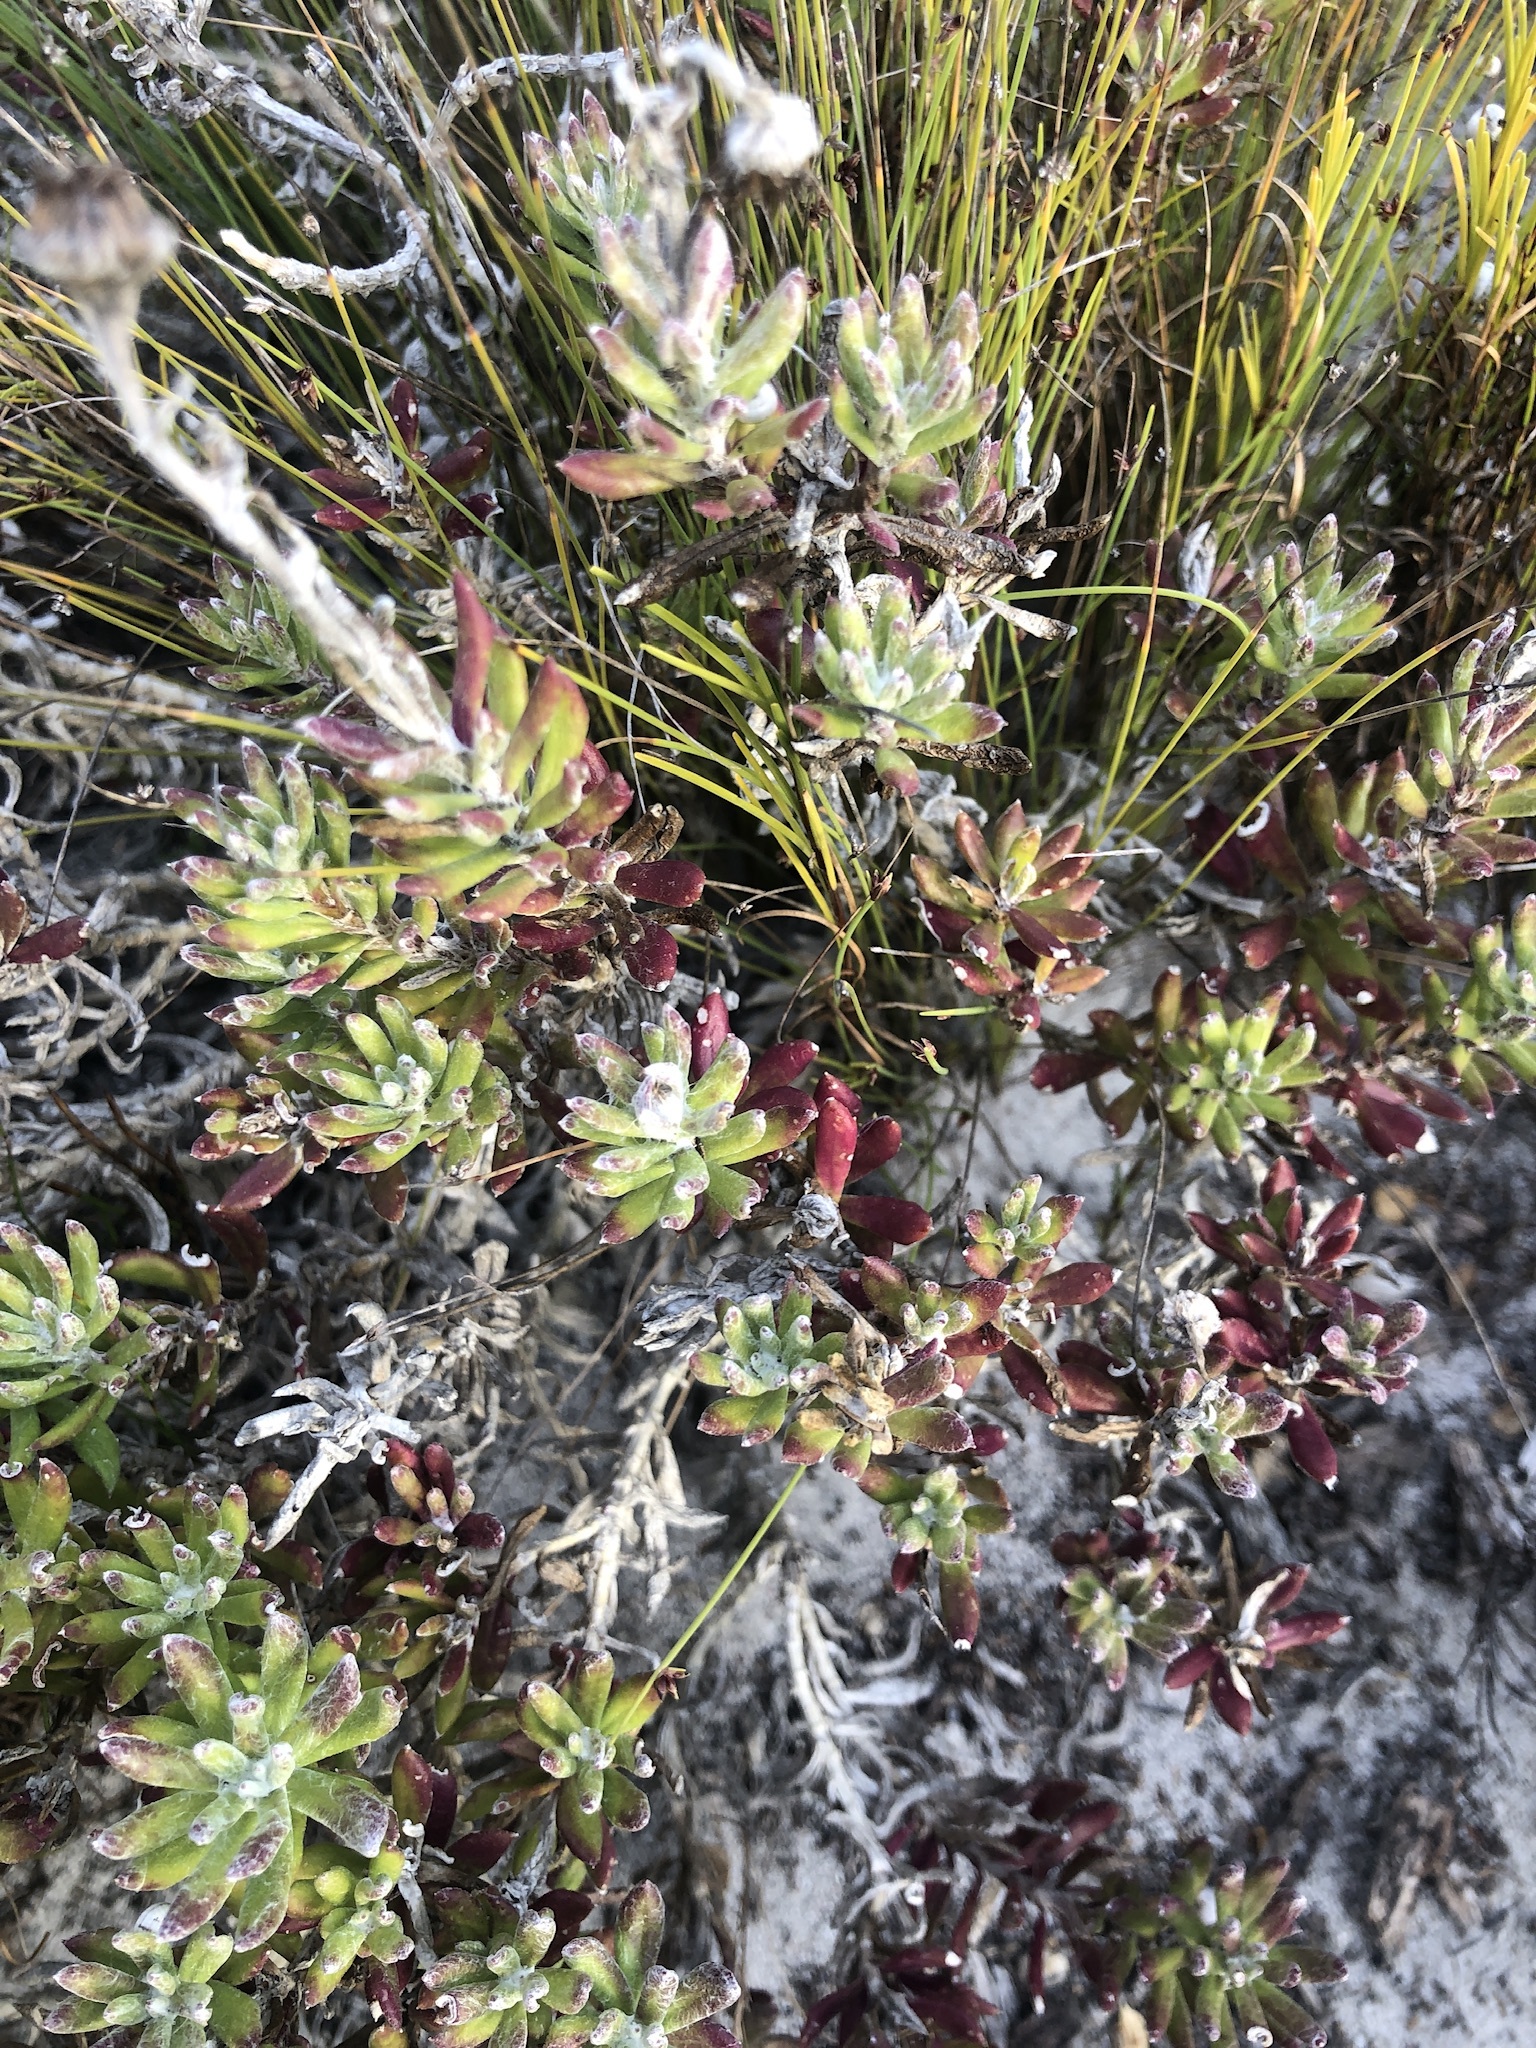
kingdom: Plantae
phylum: Tracheophyta
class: Magnoliopsida
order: Asterales
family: Asteraceae
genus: Senecio
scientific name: Senecio arniciflorus
